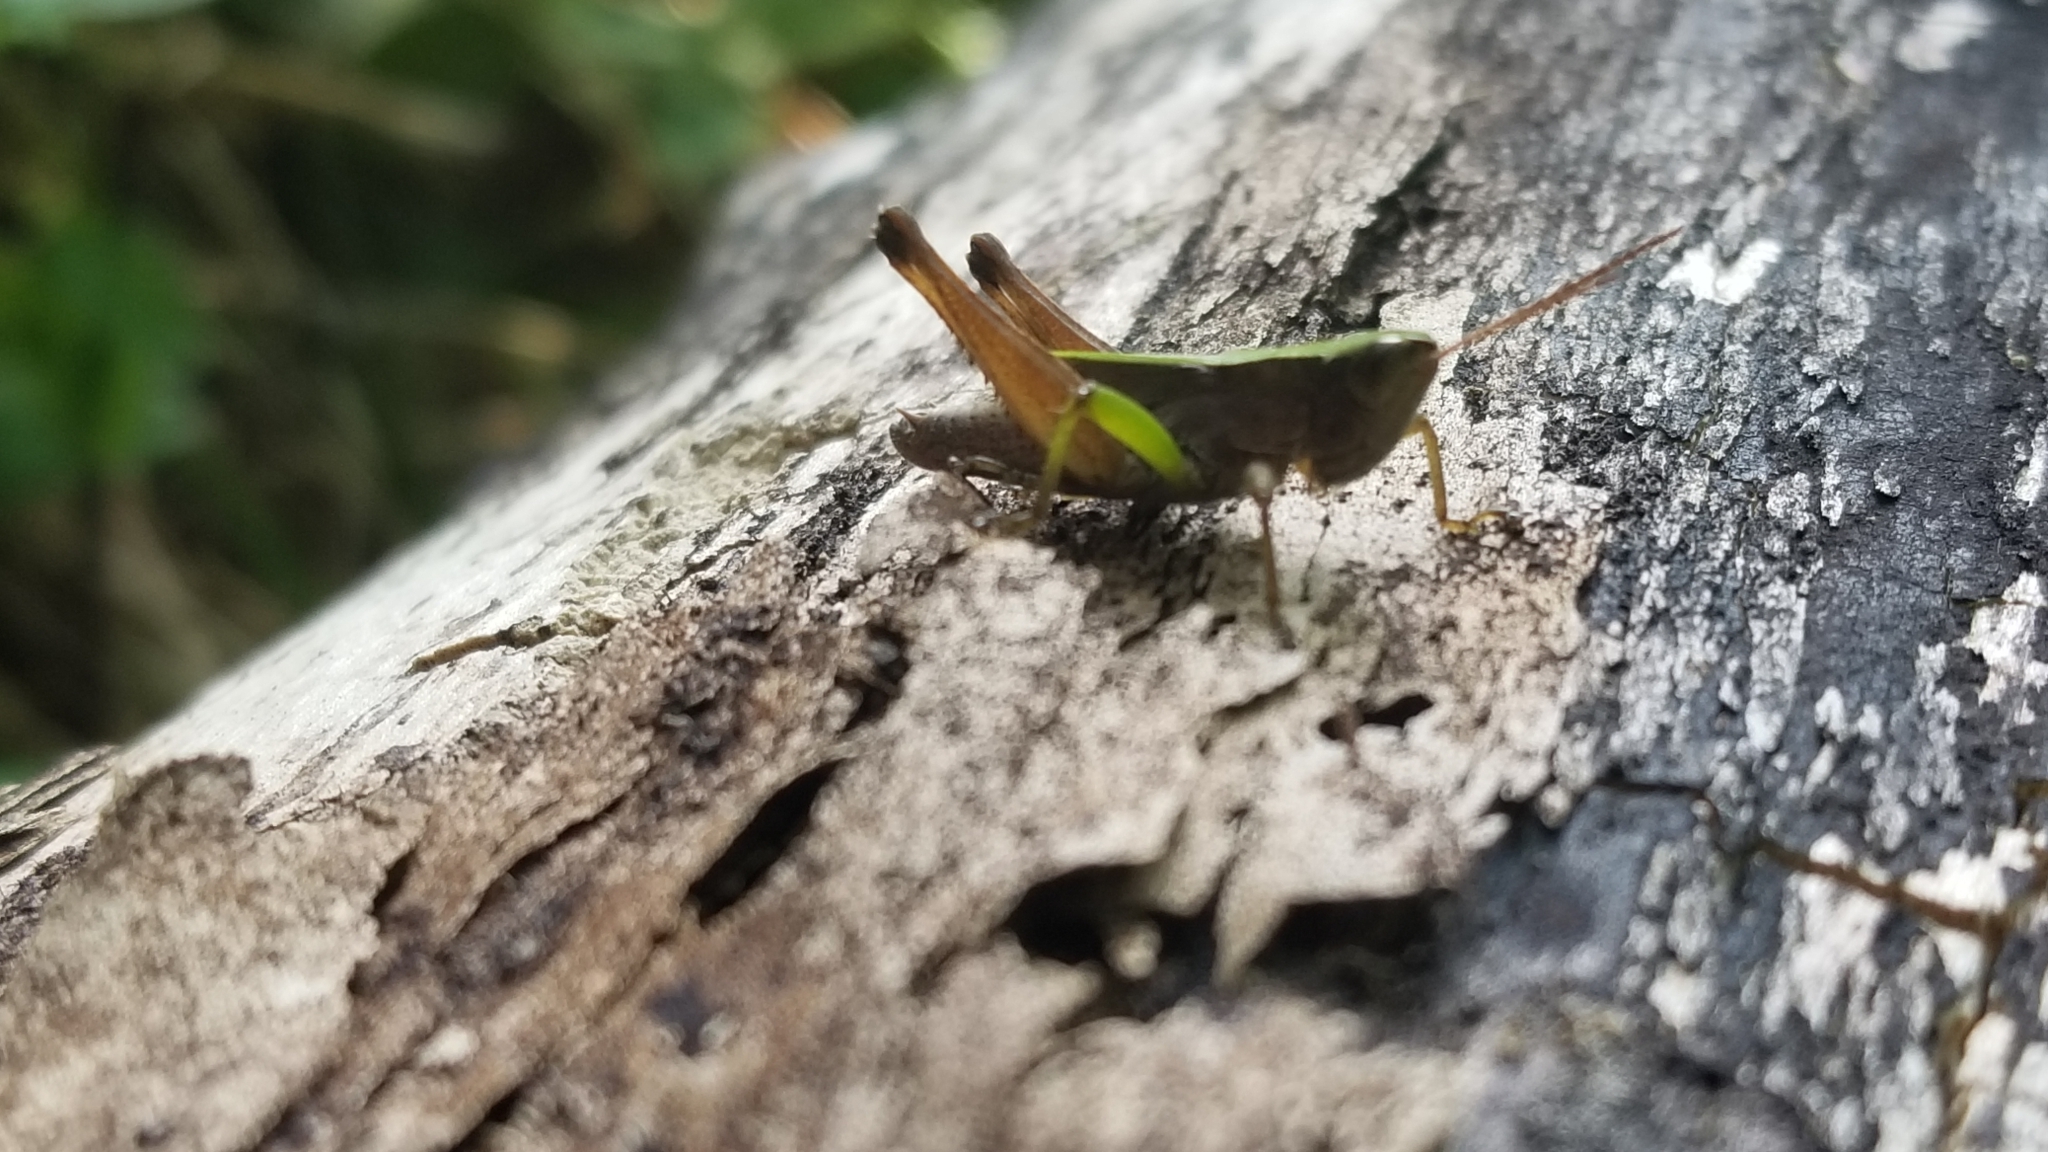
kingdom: Animalia
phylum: Arthropoda
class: Insecta
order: Orthoptera
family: Acrididae
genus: Dichromorpha
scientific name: Dichromorpha viridis
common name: Short-winged green grasshopper
